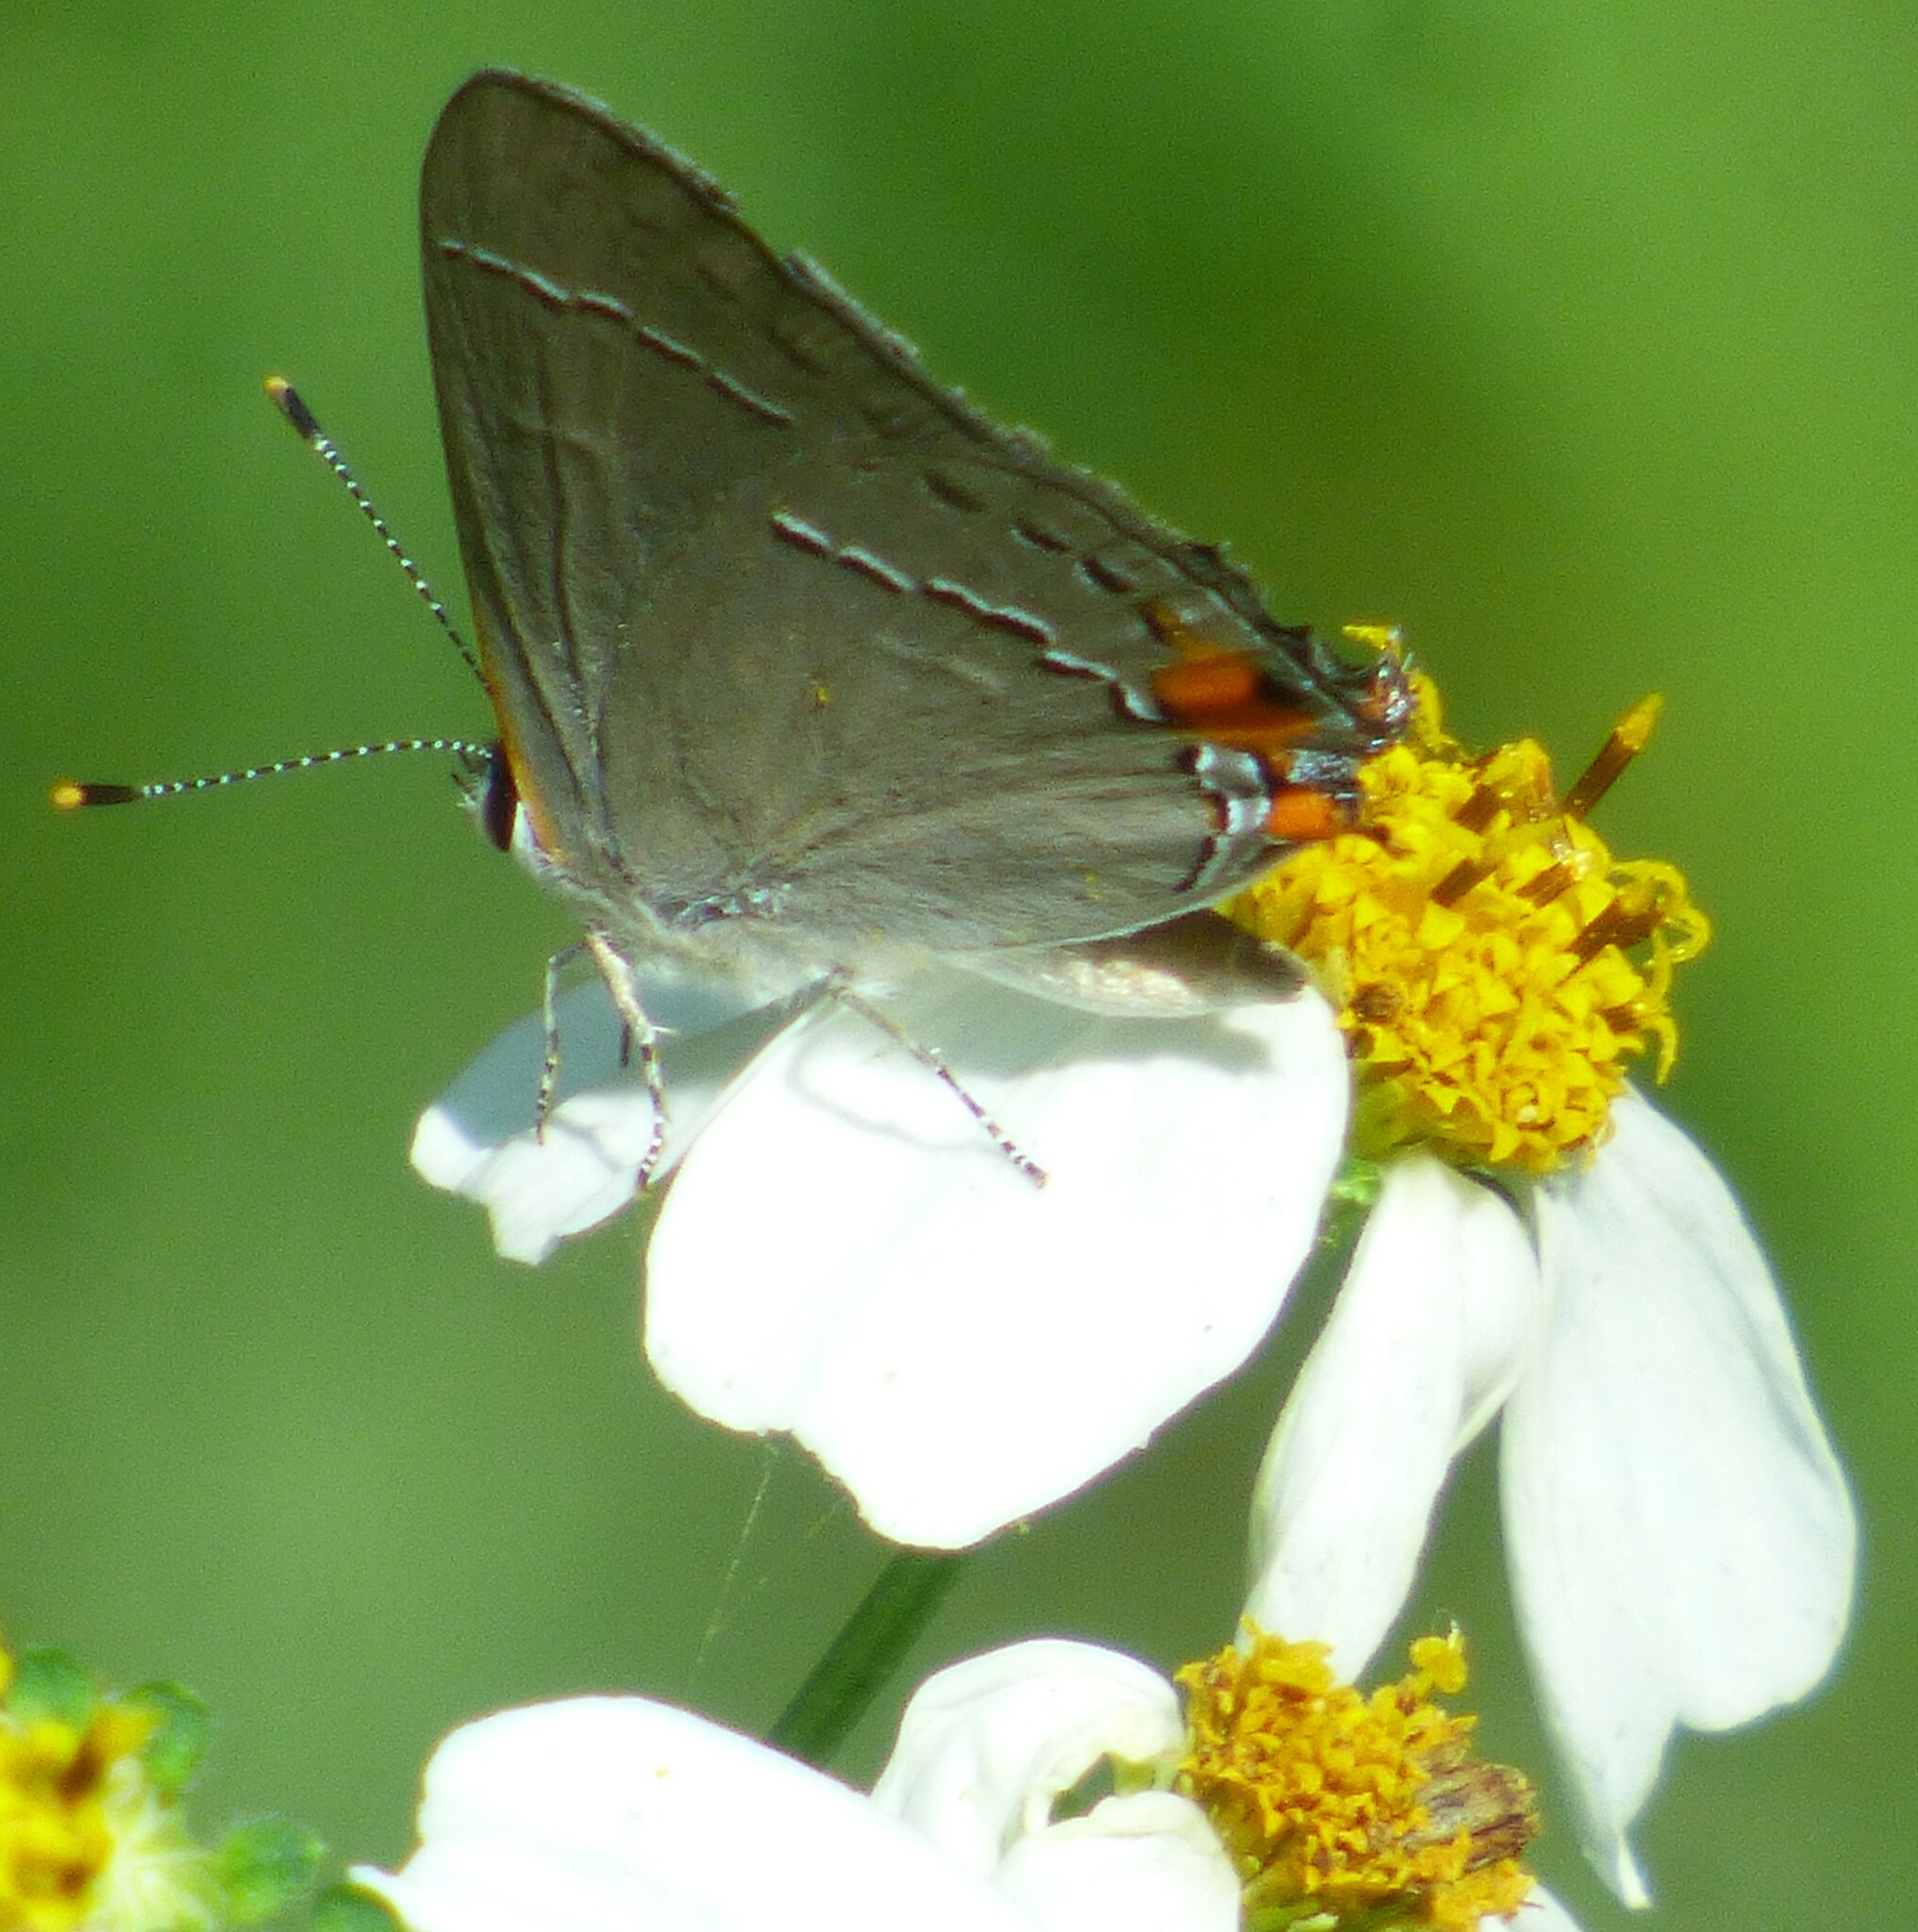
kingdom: Animalia
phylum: Arthropoda
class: Insecta
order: Lepidoptera
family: Lycaenidae
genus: Strymon
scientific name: Strymon melinus
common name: Gray hairstreak
